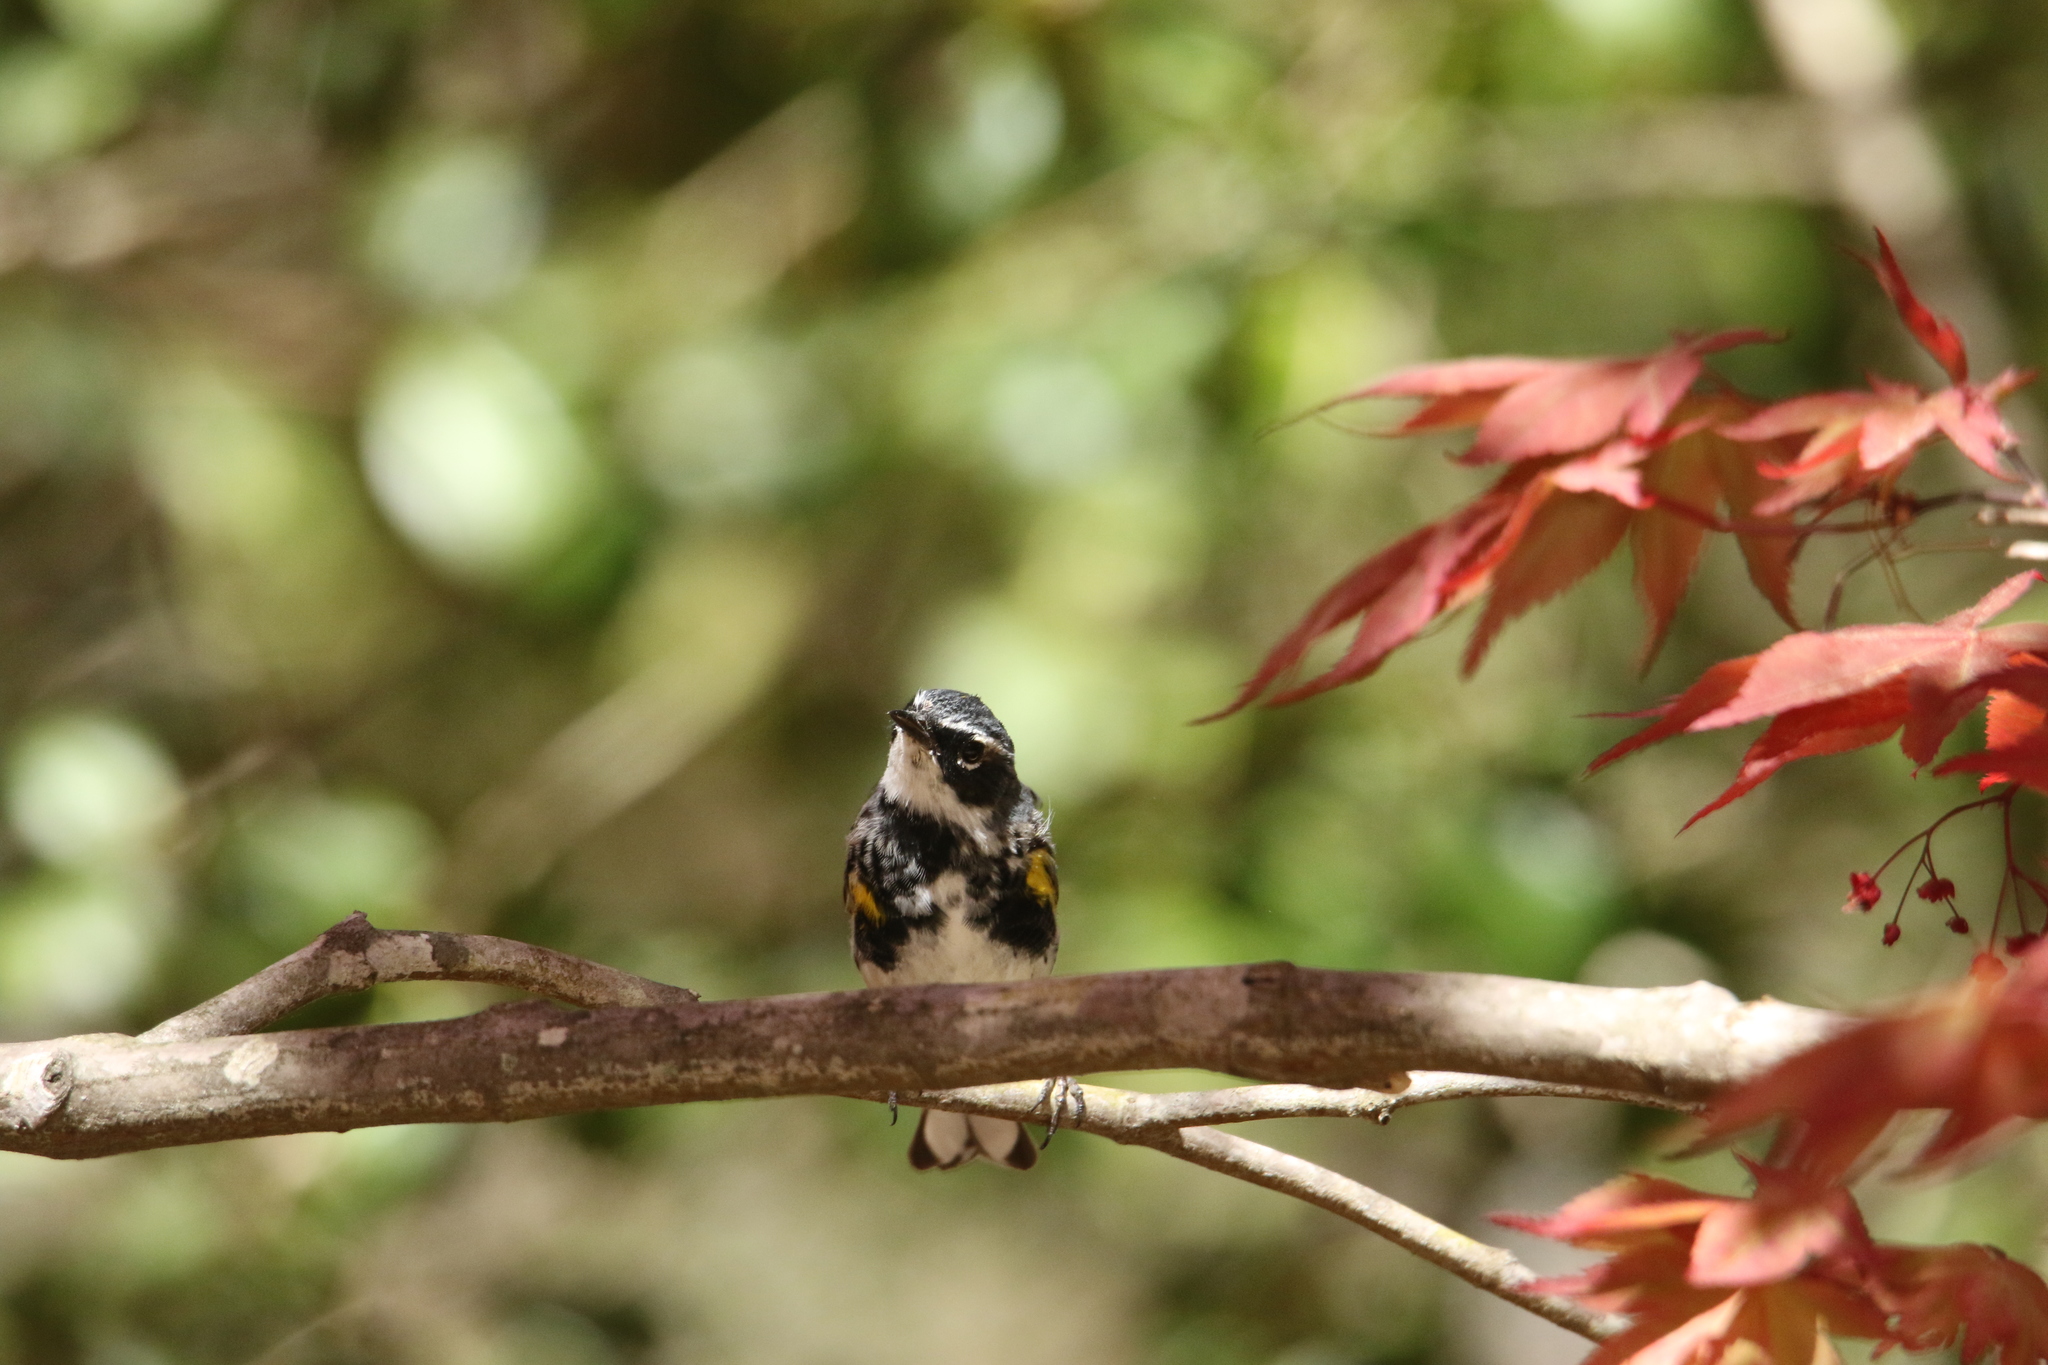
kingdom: Animalia
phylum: Chordata
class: Aves
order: Passeriformes
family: Parulidae
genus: Setophaga
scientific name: Setophaga coronata
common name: Myrtle warbler
